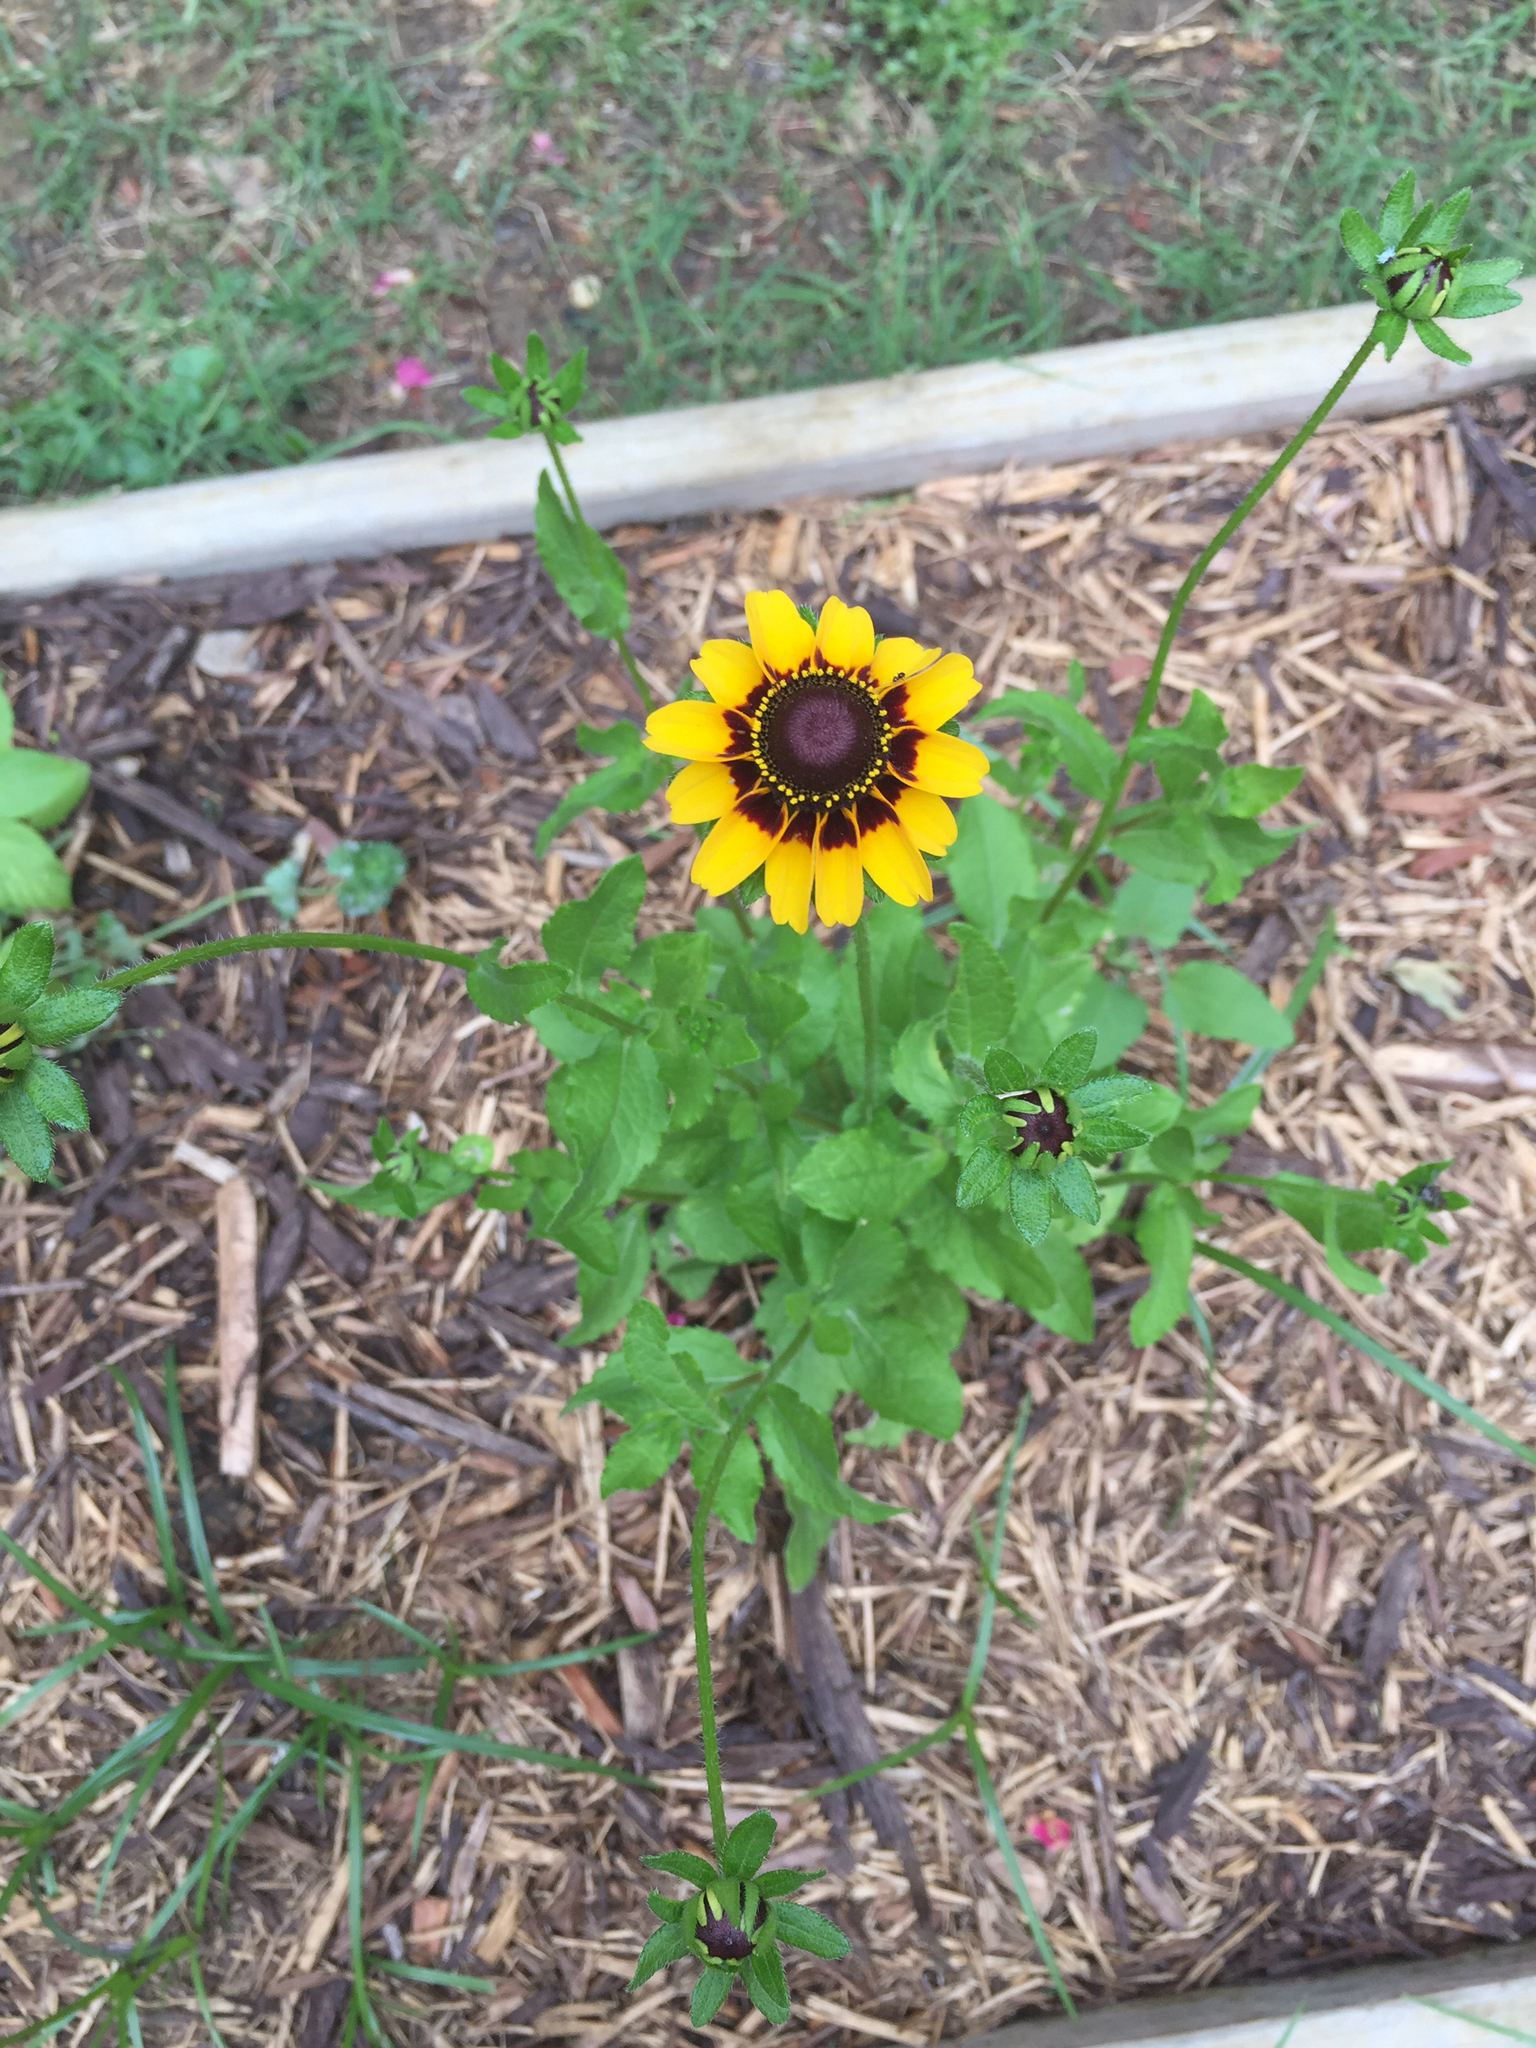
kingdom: Plantae
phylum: Tracheophyta
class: Magnoliopsida
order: Asterales
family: Asteraceae
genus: Rudbeckia
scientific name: Rudbeckia hirta
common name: Black-eyed-susan
